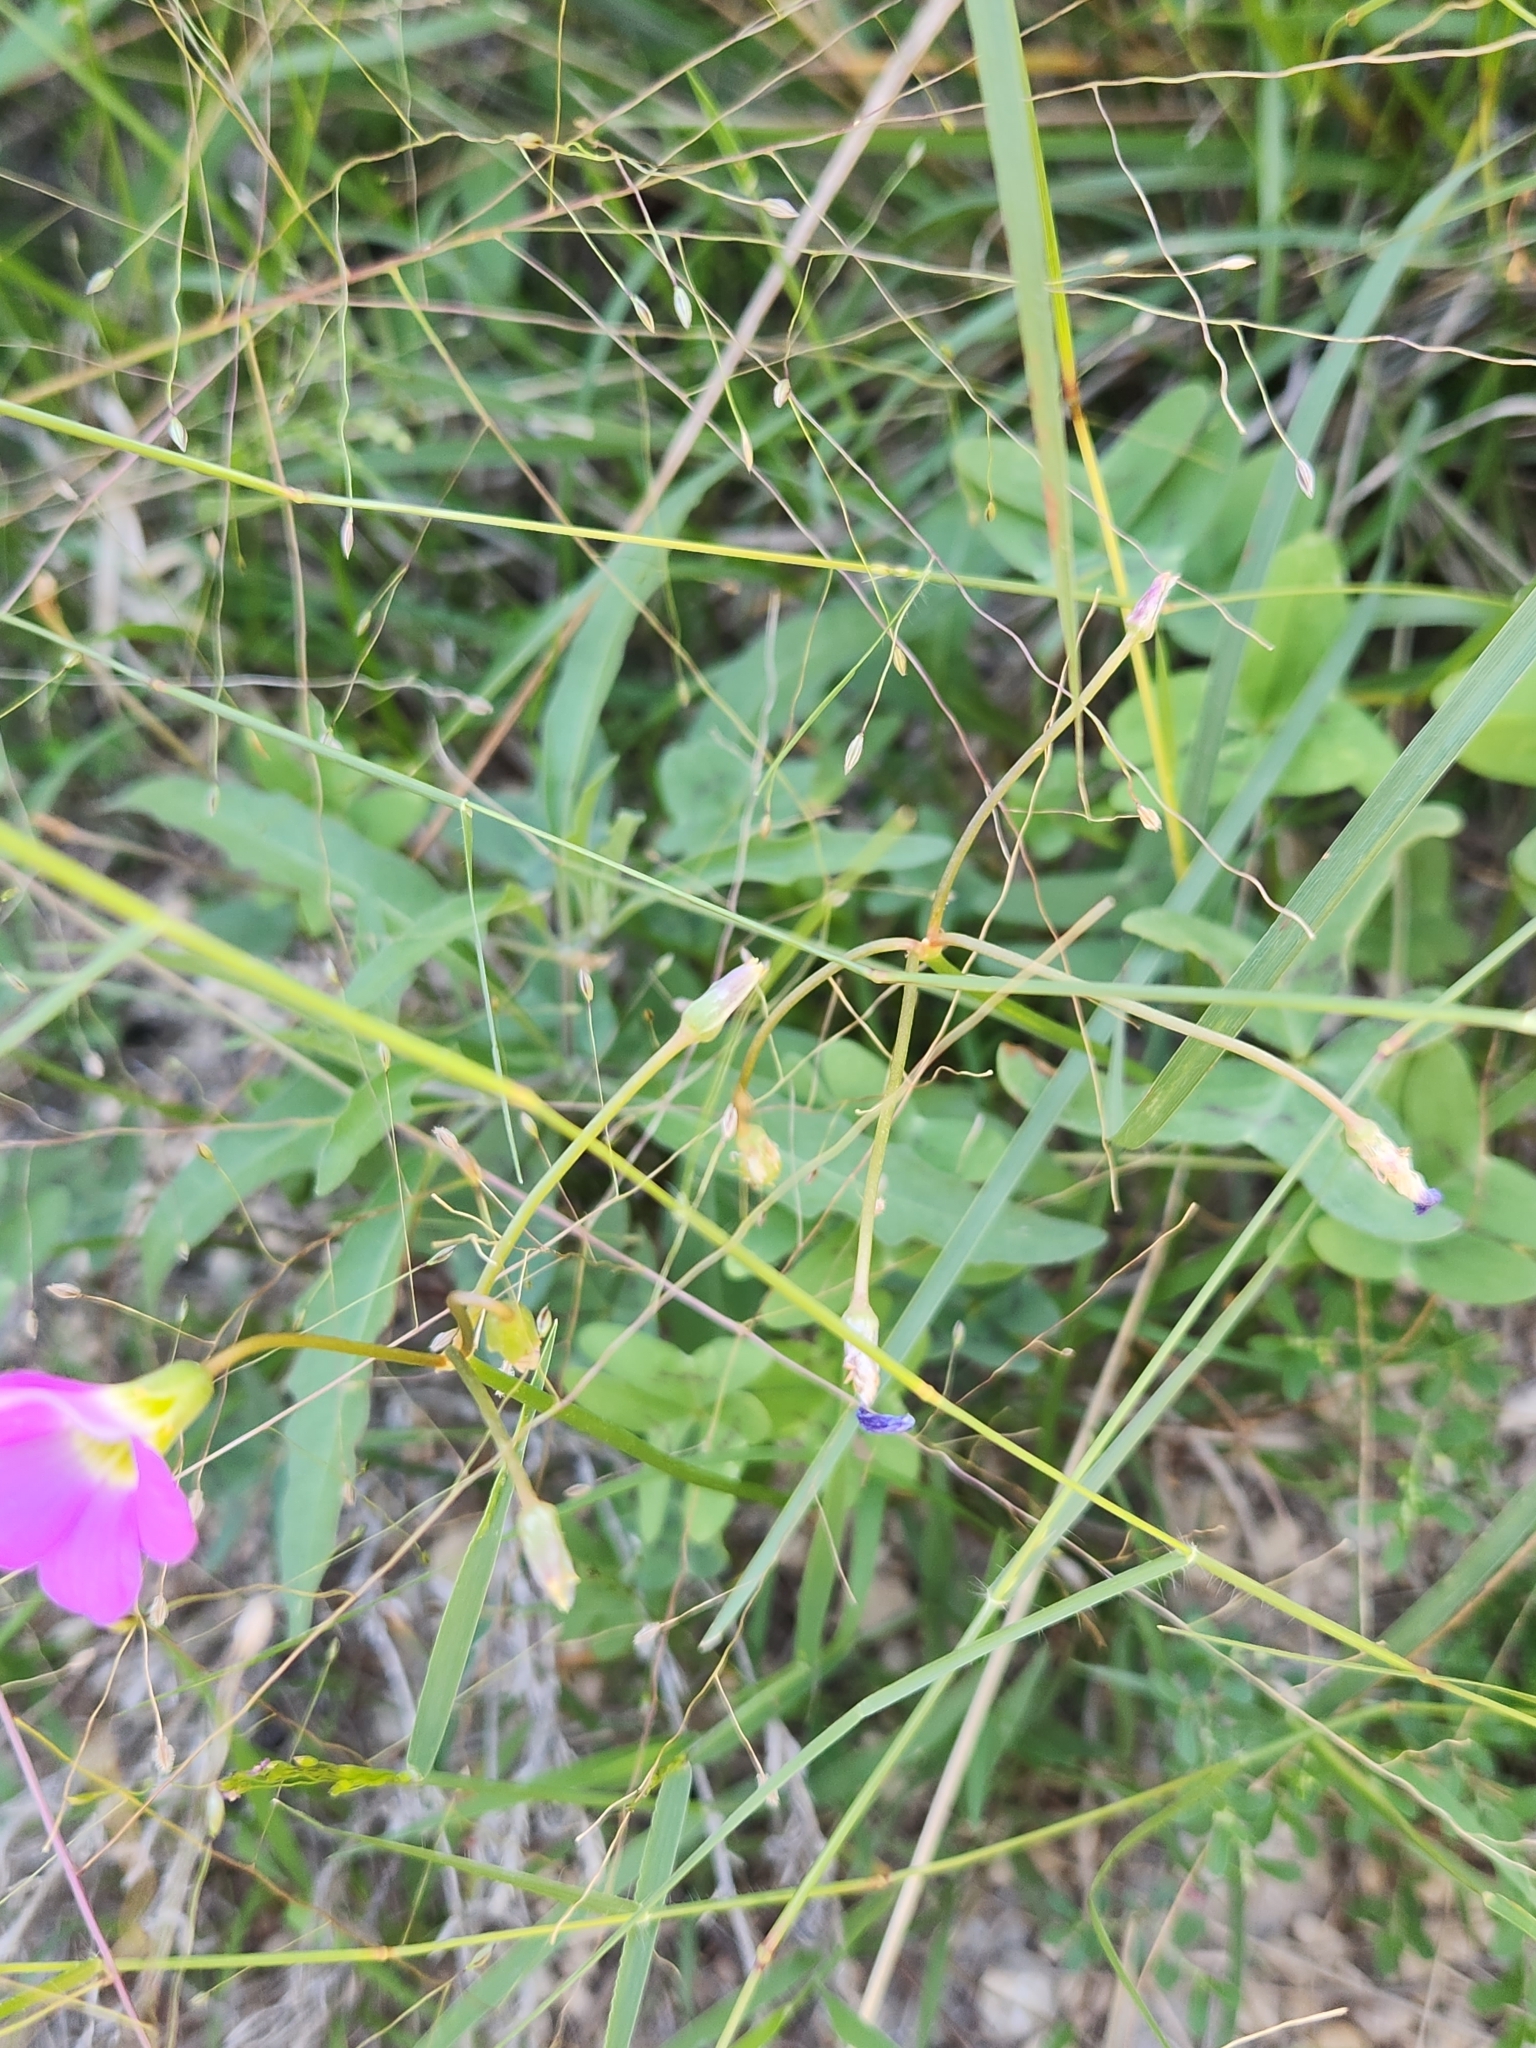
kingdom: Plantae
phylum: Tracheophyta
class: Magnoliopsida
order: Oxalidales
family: Oxalidaceae
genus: Oxalis
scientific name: Oxalis drummondii
